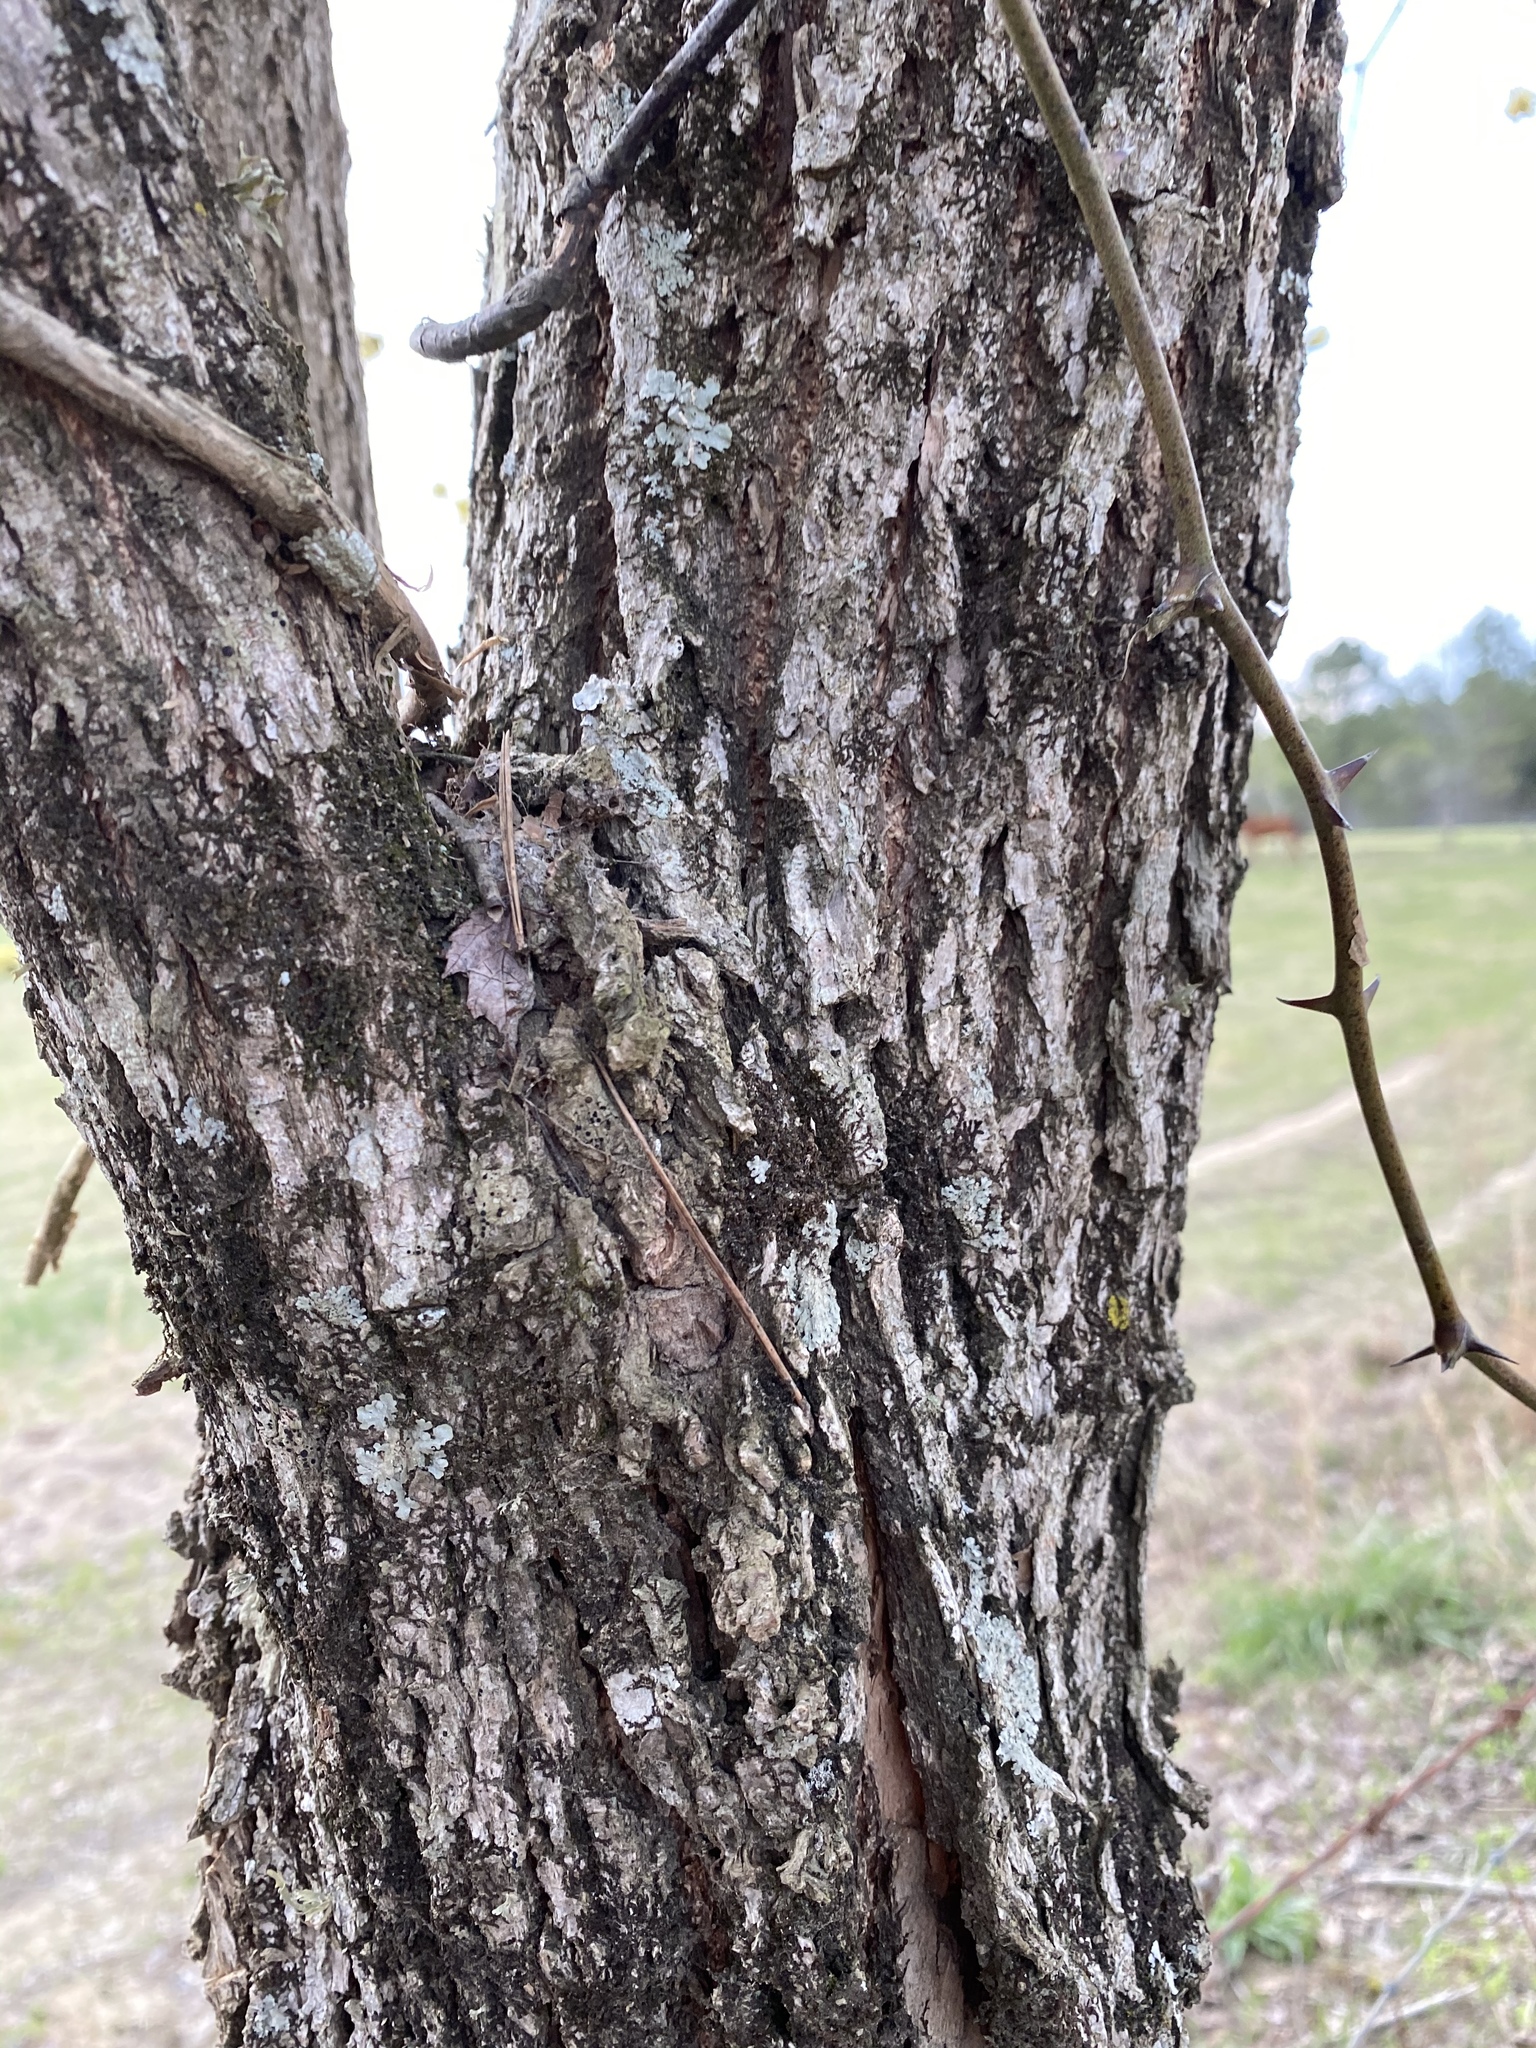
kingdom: Plantae
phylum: Tracheophyta
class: Magnoliopsida
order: Laurales
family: Lauraceae
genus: Sassafras
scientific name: Sassafras albidum
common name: Sassafras
